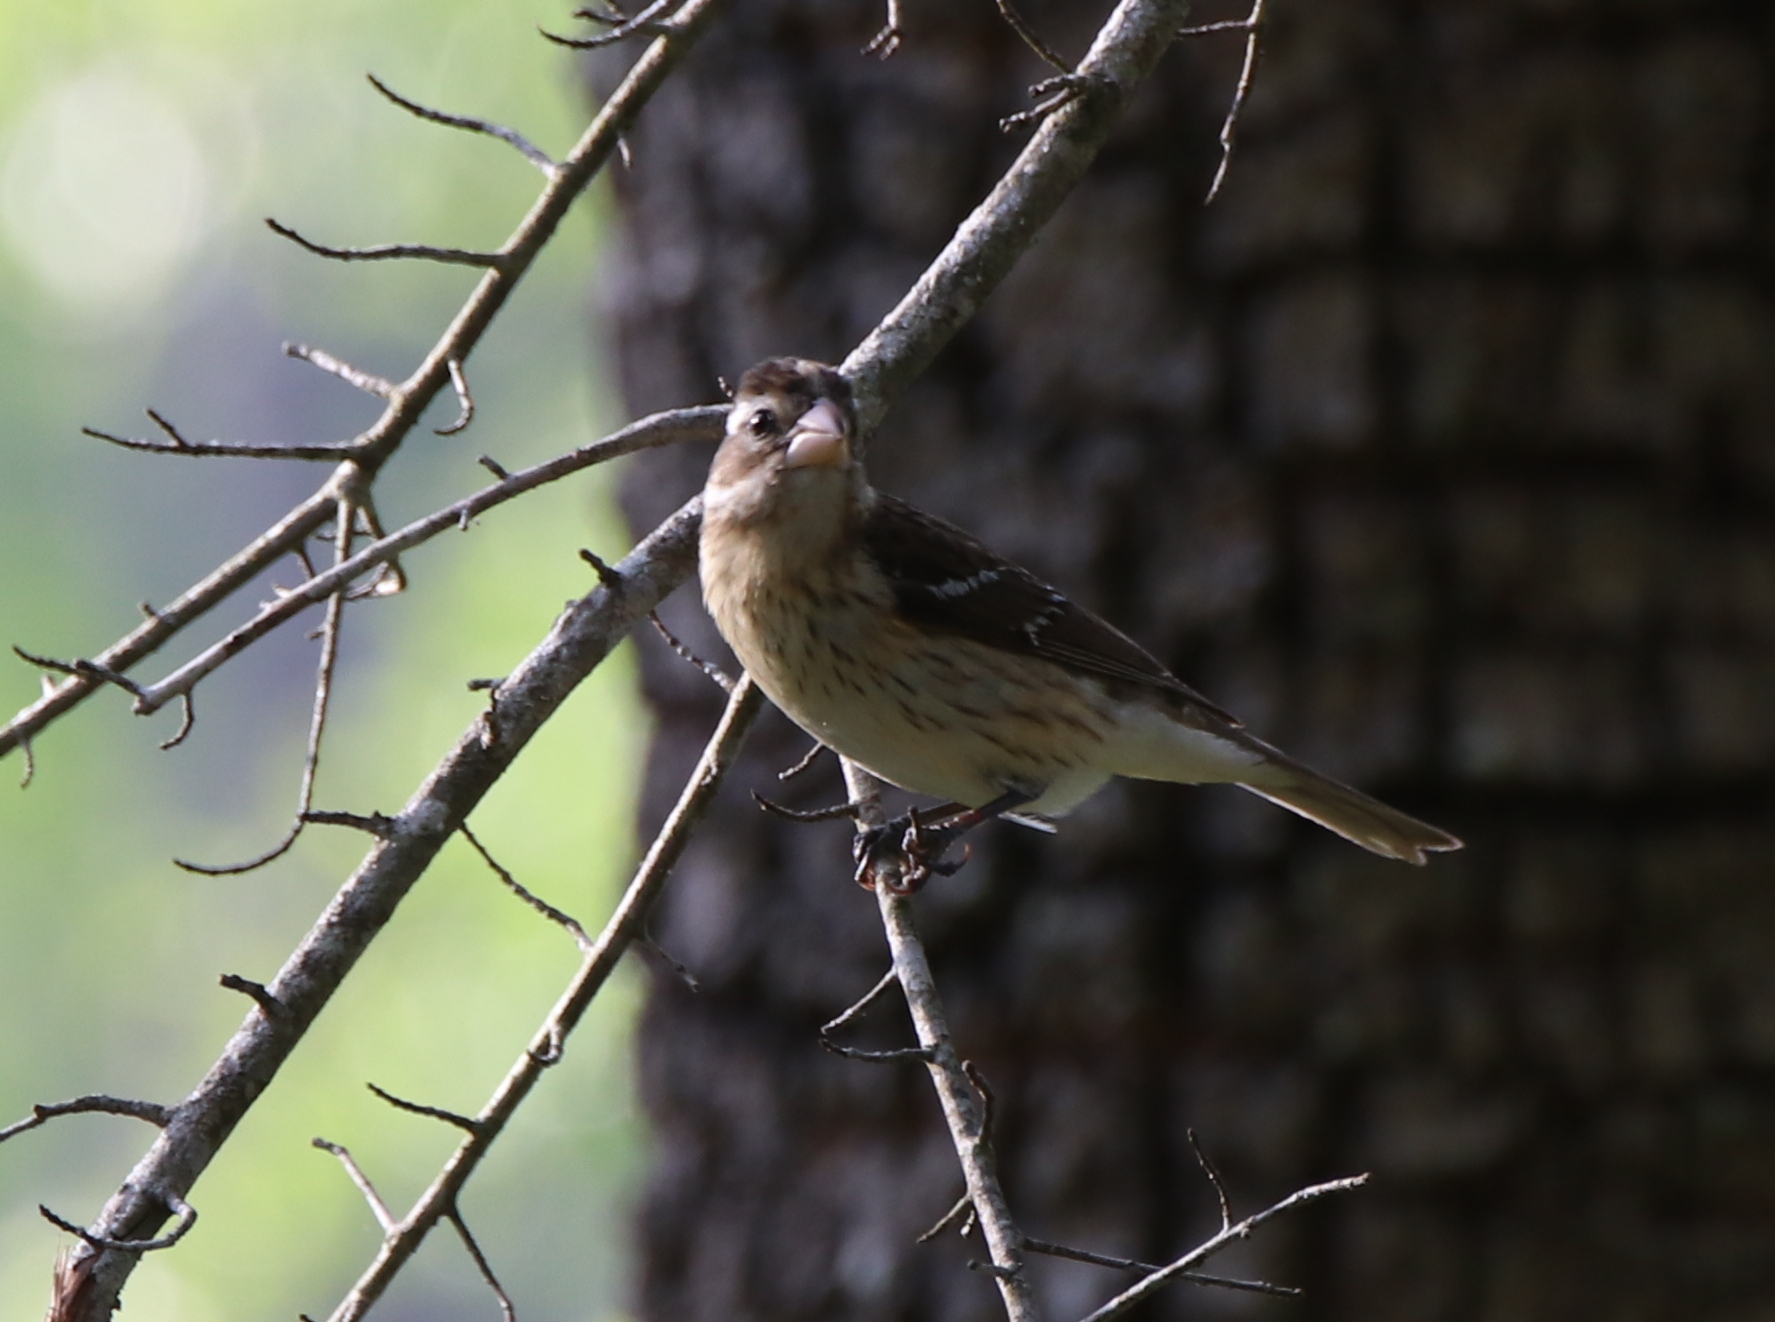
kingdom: Animalia
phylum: Chordata
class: Aves
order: Passeriformes
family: Cardinalidae
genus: Pheucticus
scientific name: Pheucticus ludovicianus
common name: Rose-breasted grosbeak
